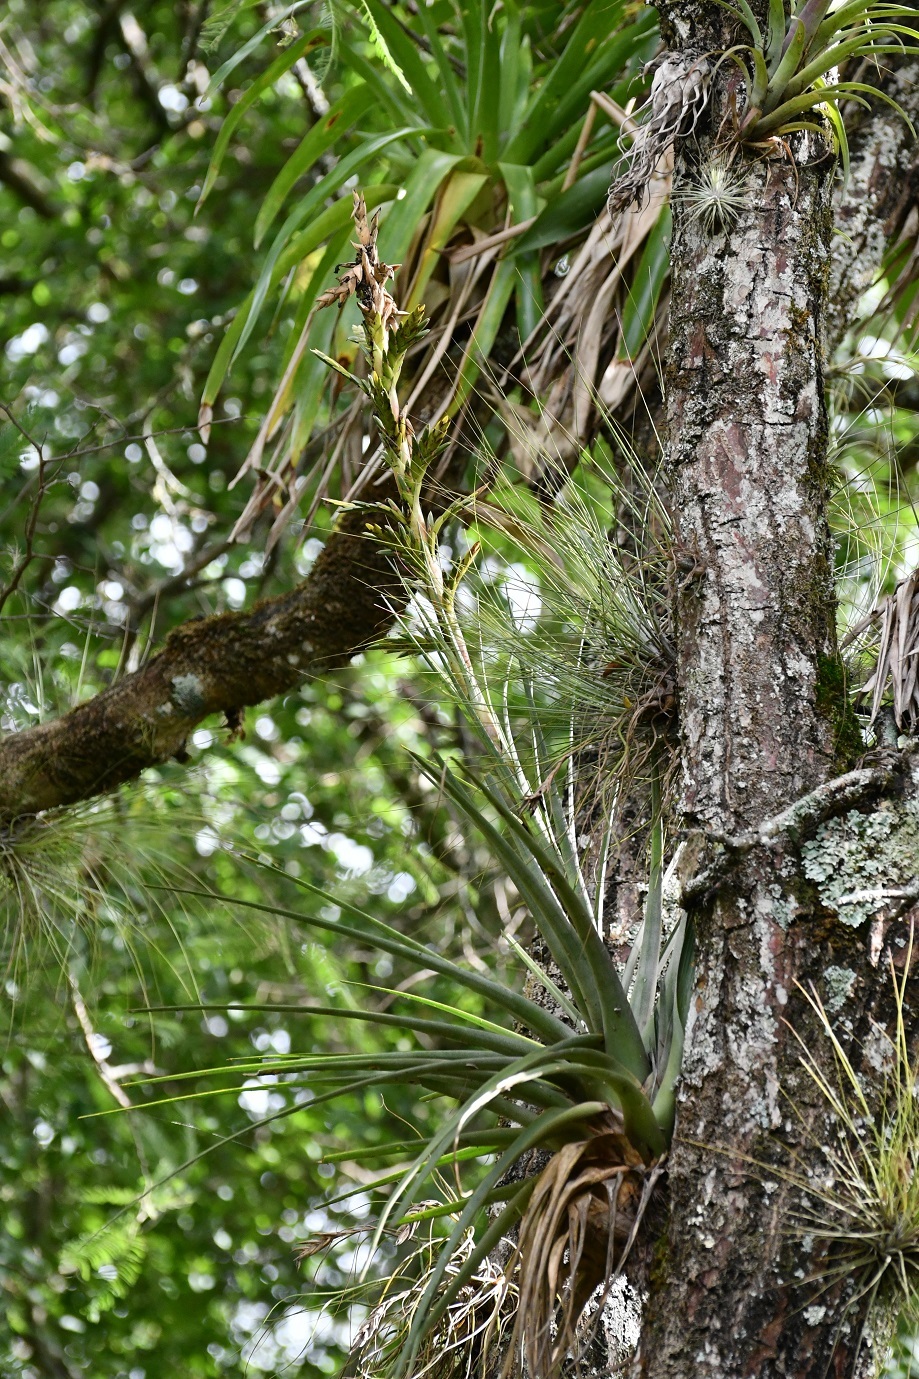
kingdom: Plantae
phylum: Tracheophyta
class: Liliopsida
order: Poales
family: Bromeliaceae
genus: Tillandsia
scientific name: Tillandsia rodrigueziana
